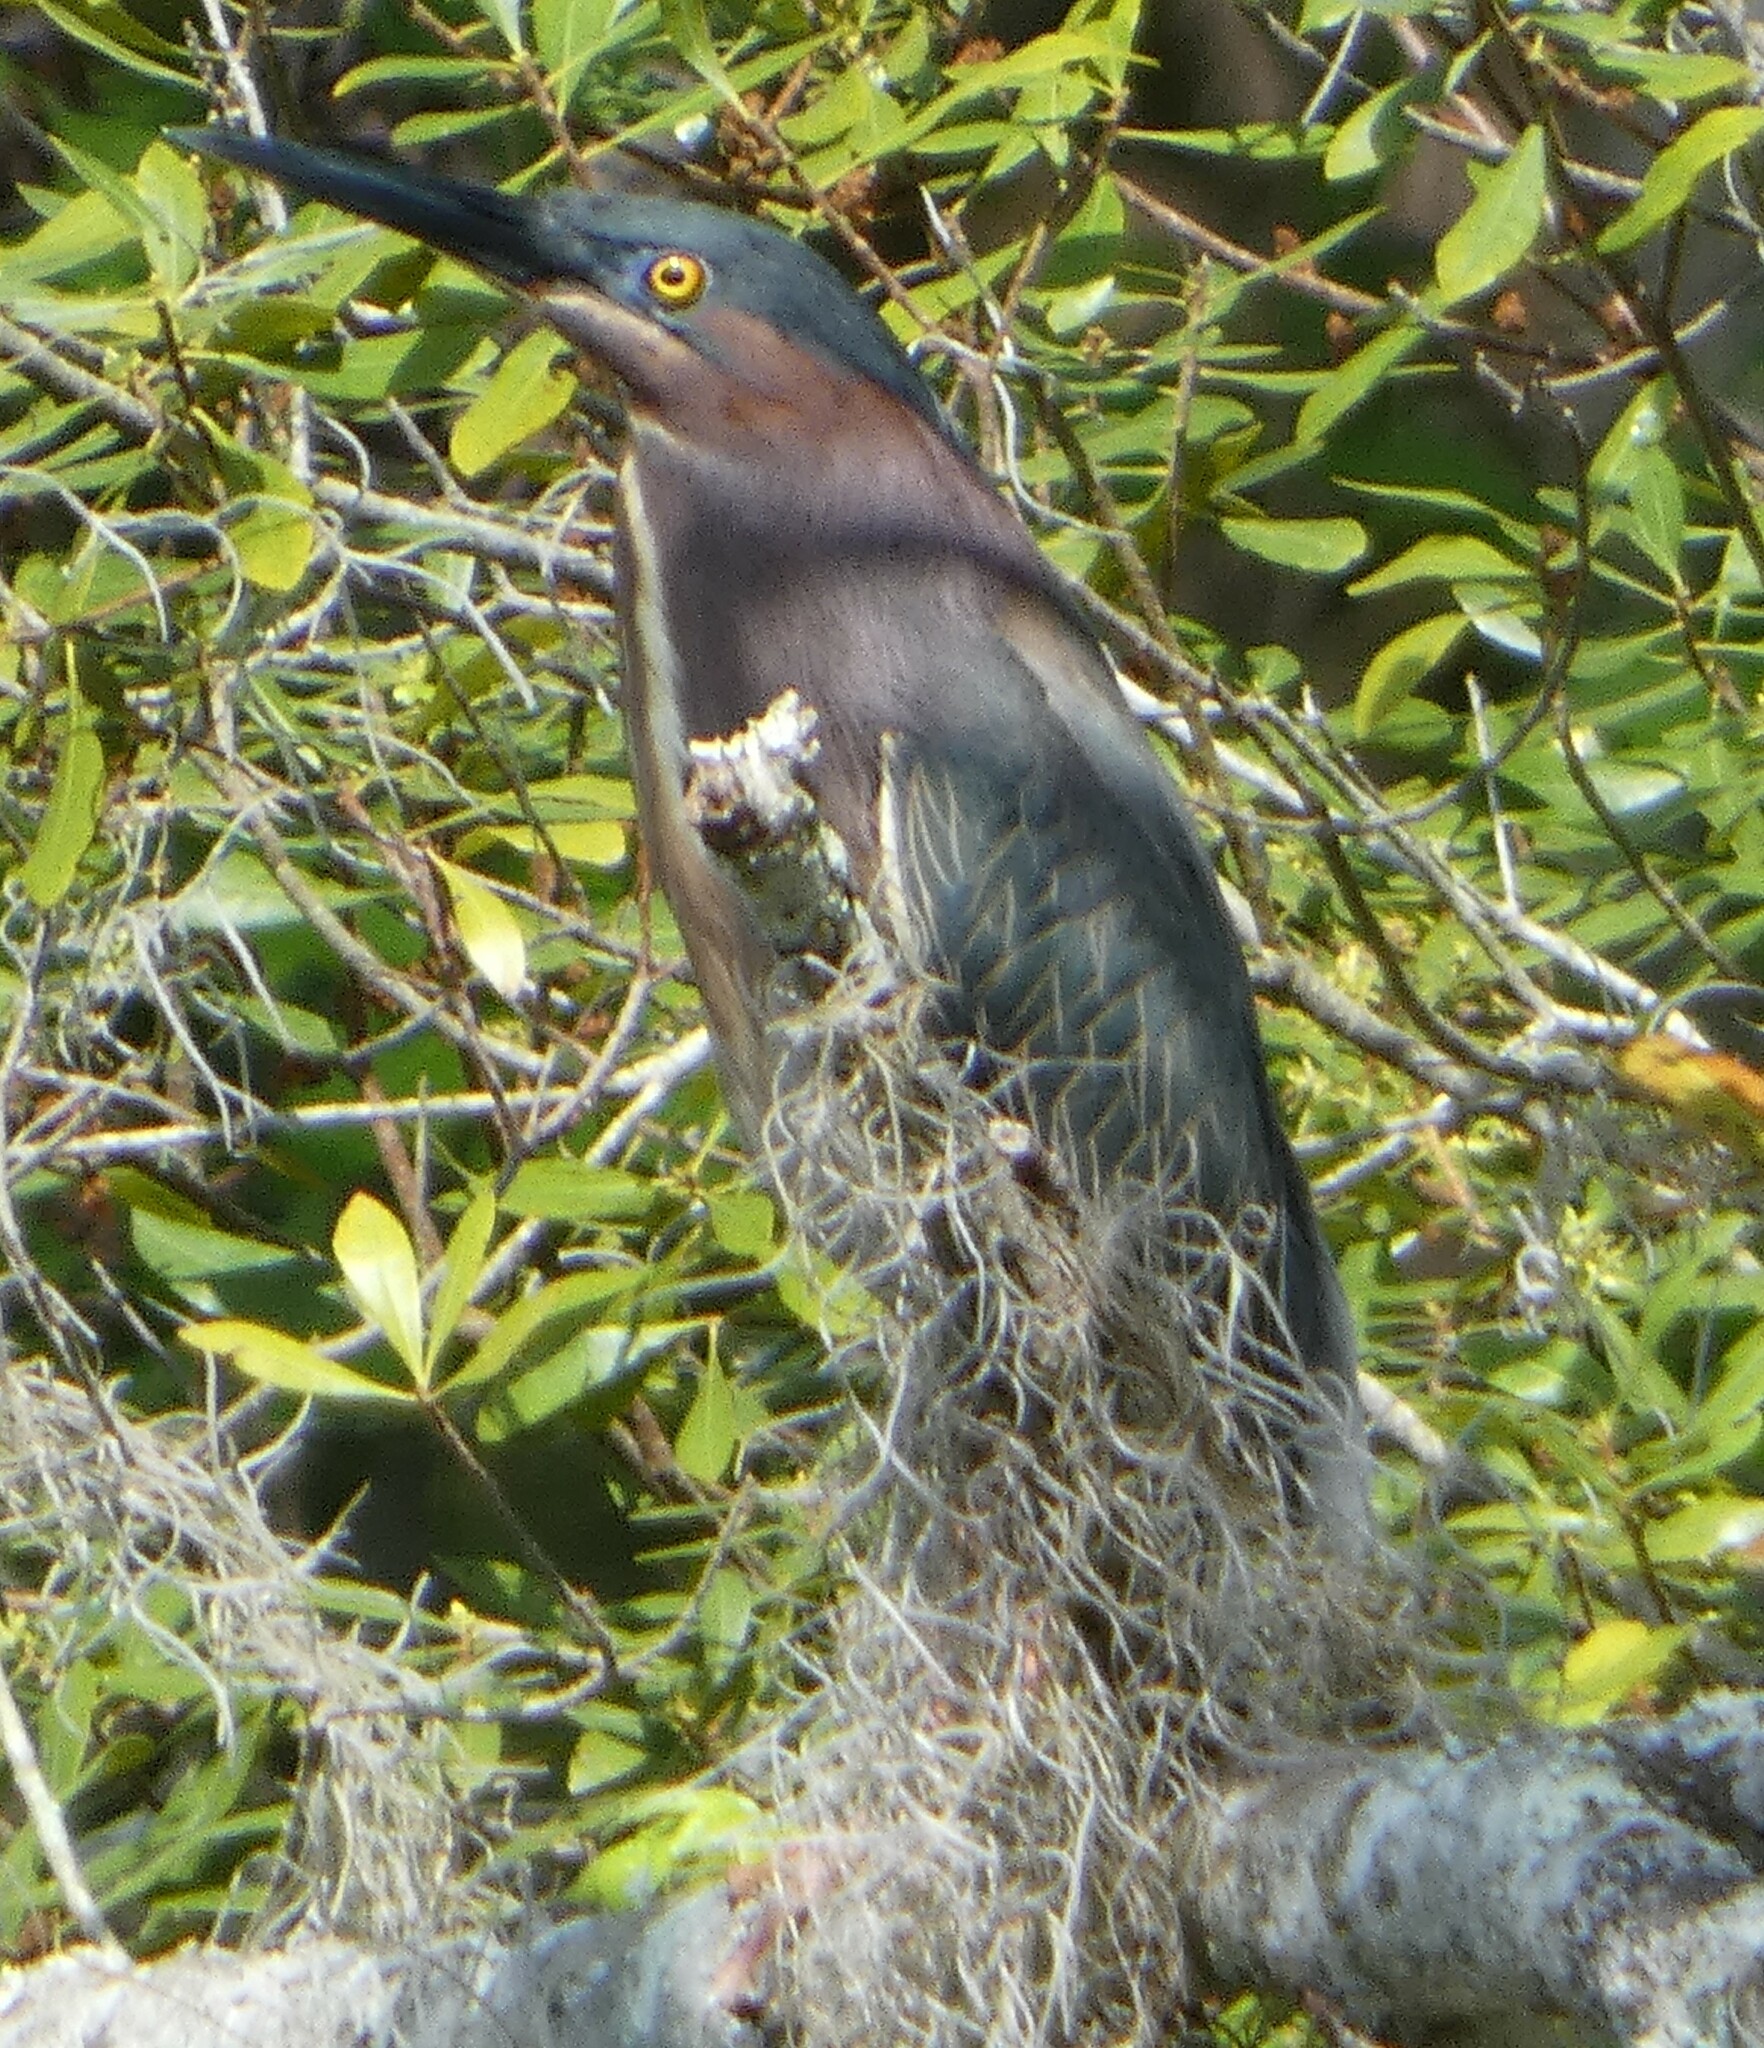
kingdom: Animalia
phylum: Chordata
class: Aves
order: Pelecaniformes
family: Ardeidae
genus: Butorides
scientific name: Butorides virescens
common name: Green heron
